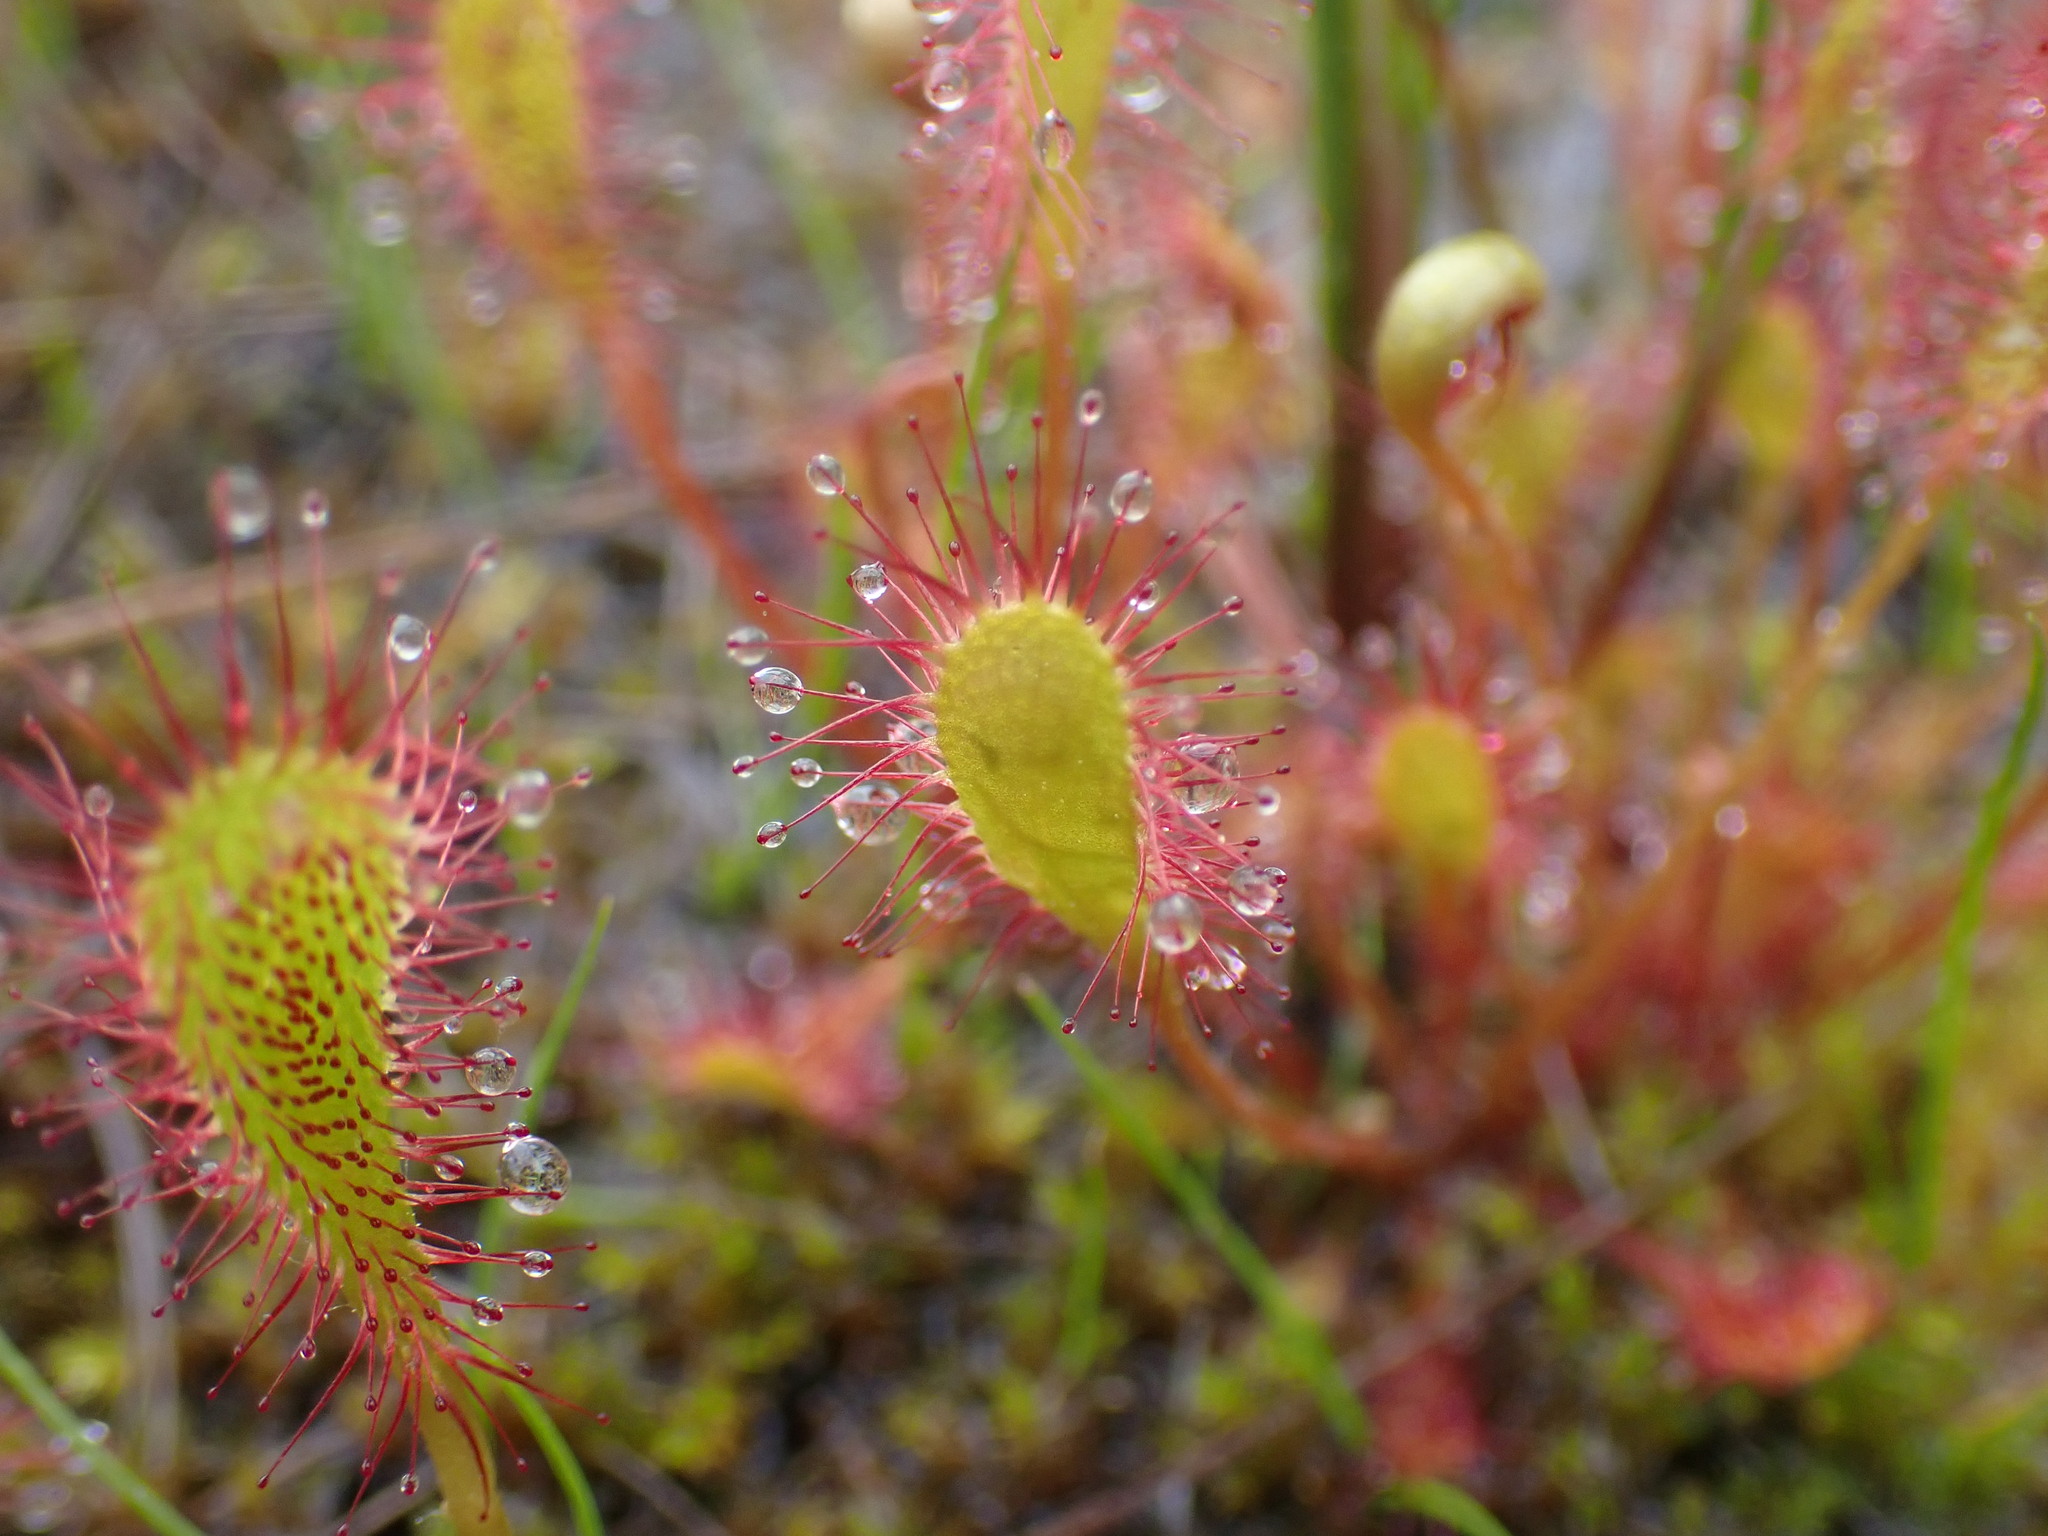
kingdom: Plantae
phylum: Tracheophyta
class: Magnoliopsida
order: Caryophyllales
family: Droseraceae
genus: Drosera
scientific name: Drosera anglica
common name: Great sundew
